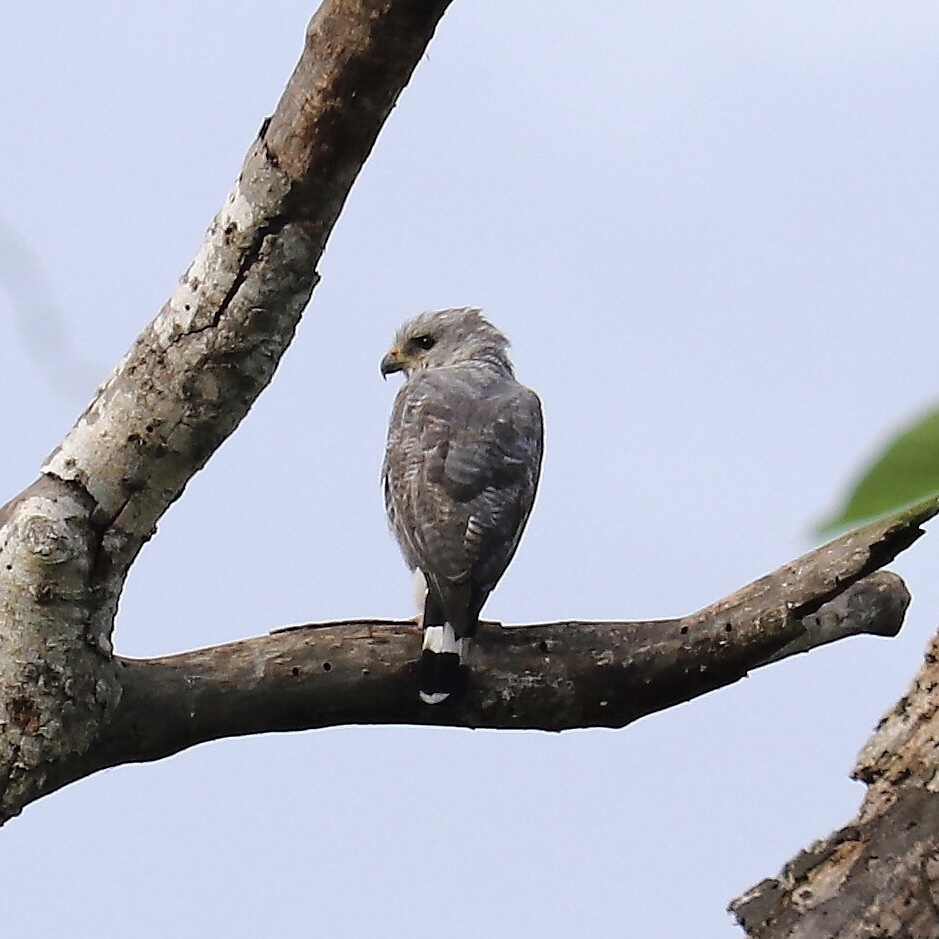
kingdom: Animalia
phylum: Chordata
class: Aves
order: Accipitriformes
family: Accipitridae
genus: Buteo
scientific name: Buteo nitidus
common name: Grey-lined hawk
